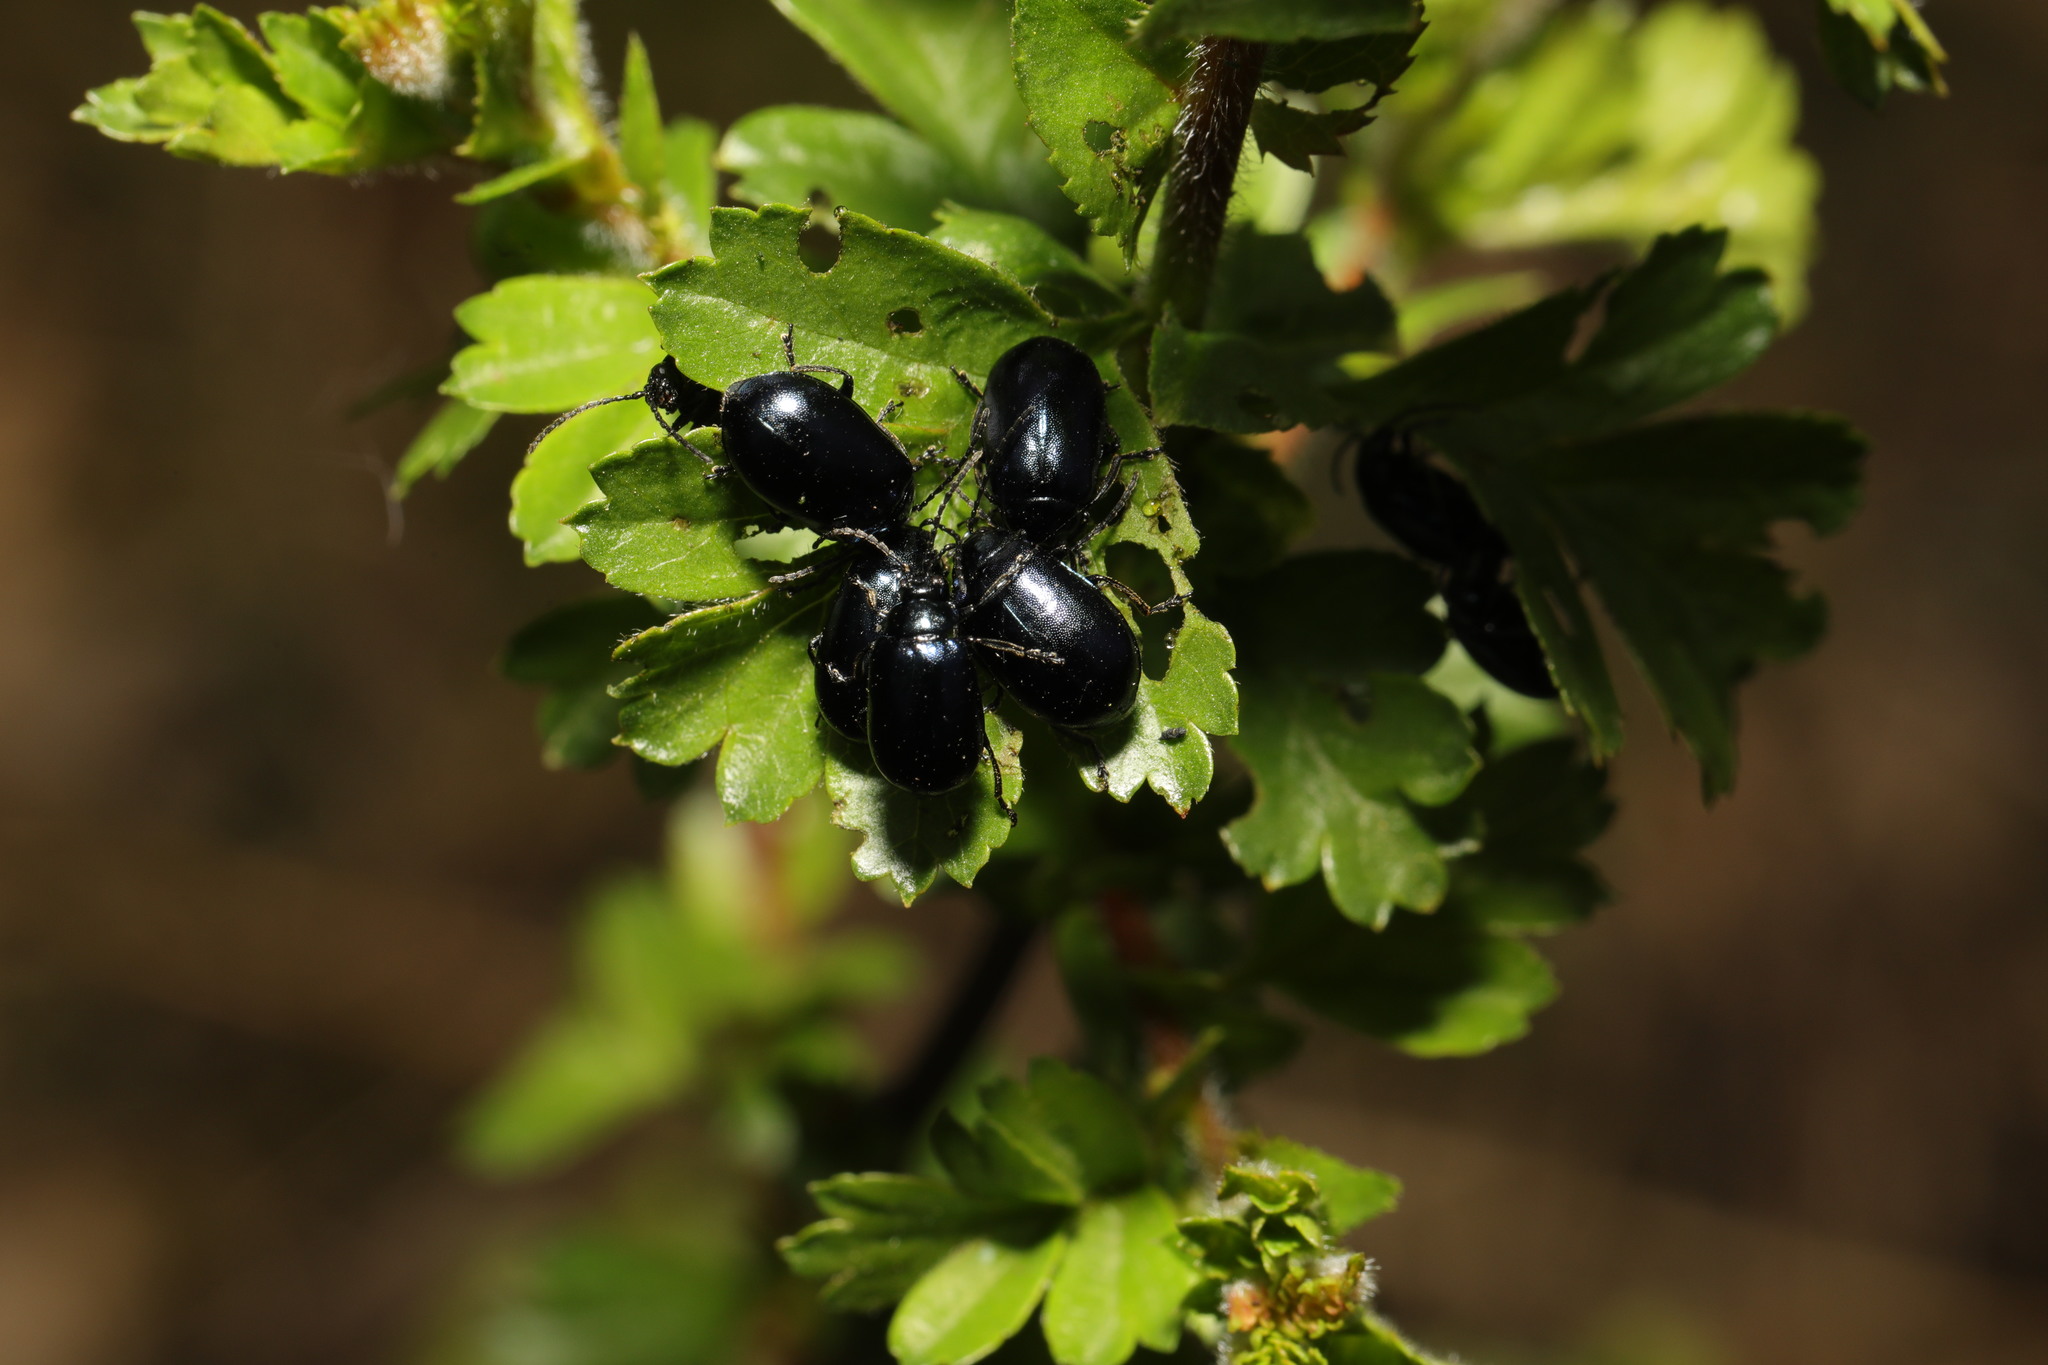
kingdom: Animalia
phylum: Arthropoda
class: Insecta
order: Coleoptera
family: Chrysomelidae
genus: Agelastica
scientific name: Agelastica alni
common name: Alder leaf beetle
